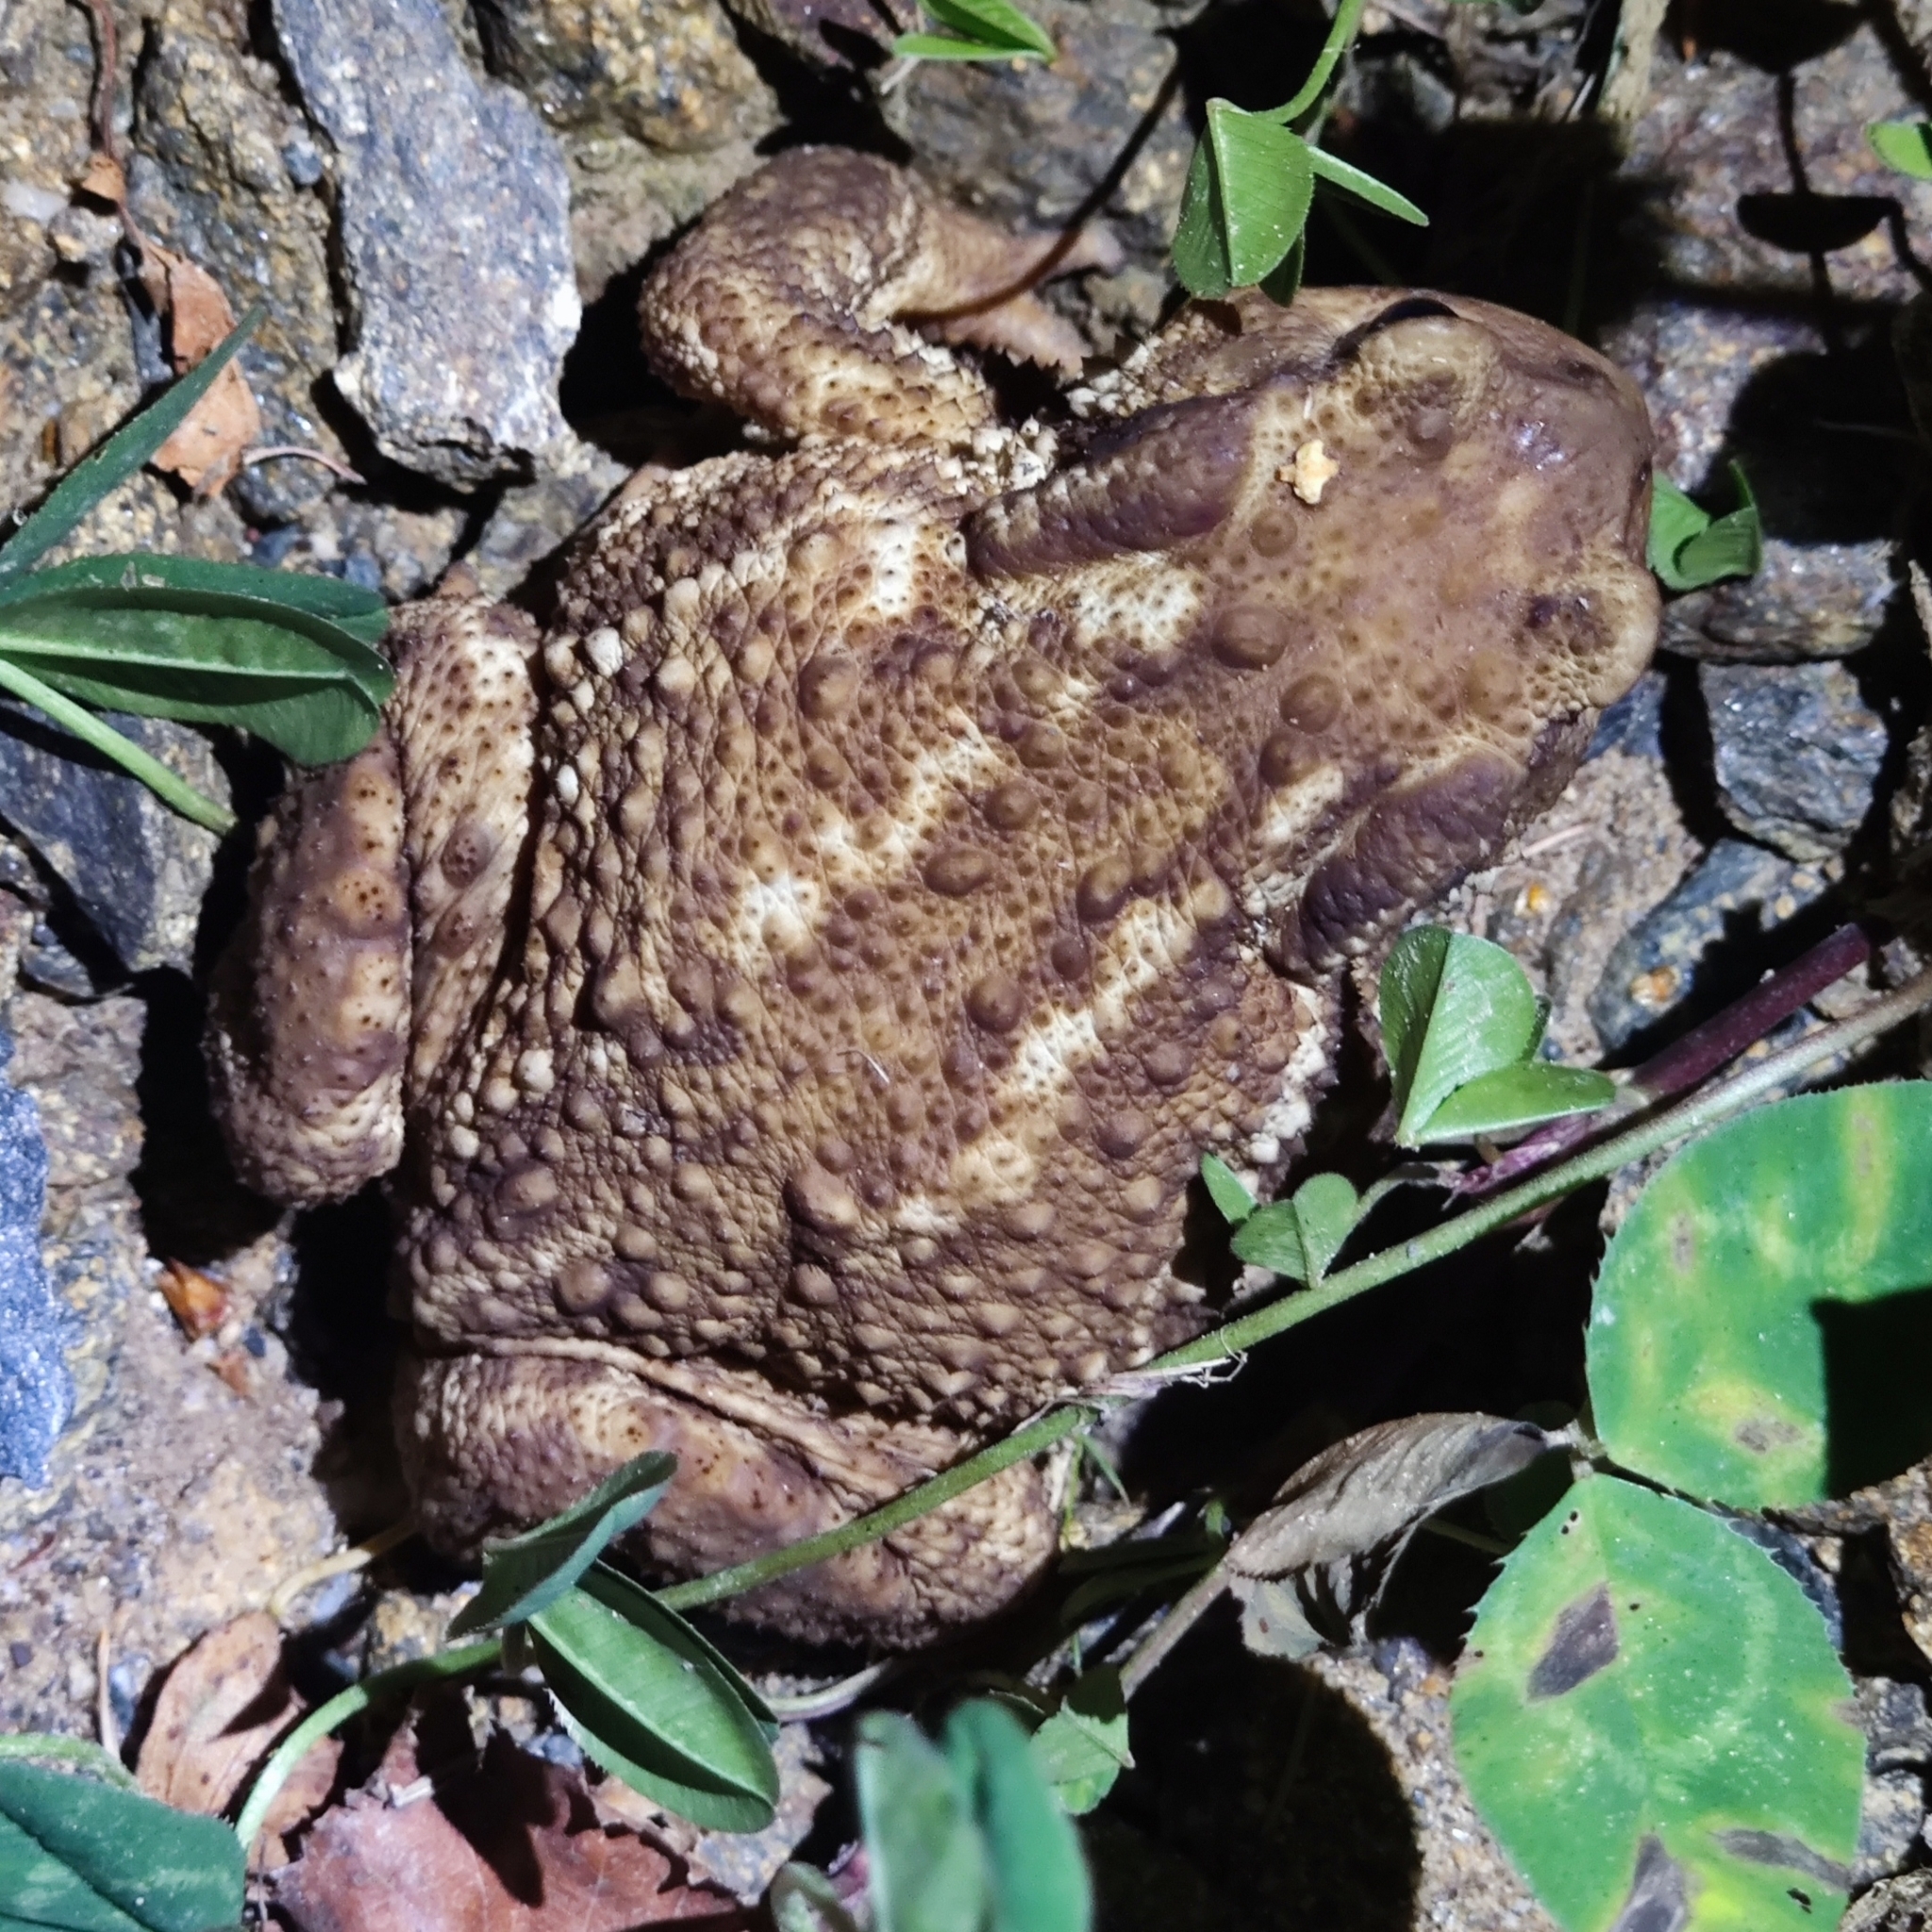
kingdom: Animalia
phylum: Chordata
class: Amphibia
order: Anura
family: Bufonidae
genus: Bufo
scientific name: Bufo spinosus
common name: Western common toad
